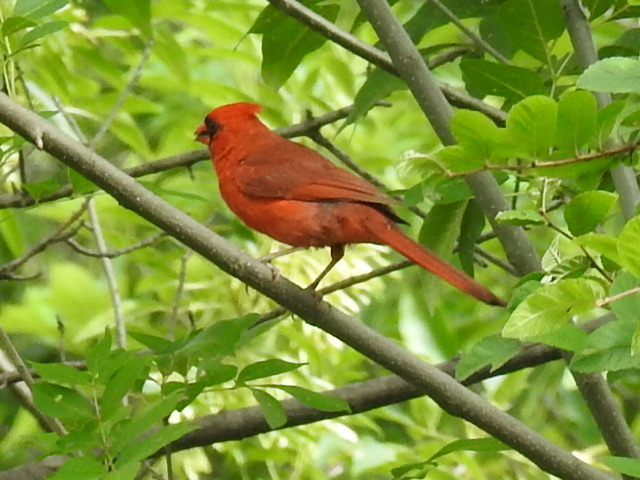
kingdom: Animalia
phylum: Chordata
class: Aves
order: Passeriformes
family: Cardinalidae
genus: Cardinalis
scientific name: Cardinalis cardinalis
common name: Northern cardinal
